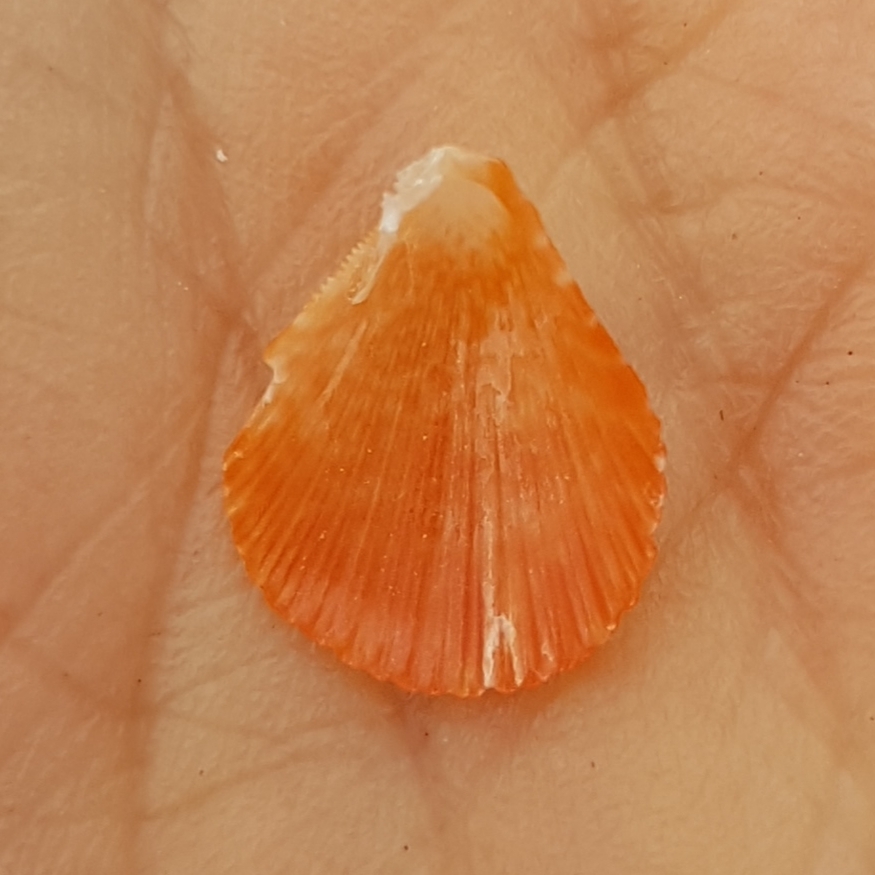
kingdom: Animalia
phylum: Mollusca
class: Bivalvia
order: Pectinida
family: Pectinidae
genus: Talochlamys
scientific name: Talochlamys multistriata
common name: Tinted scallop
